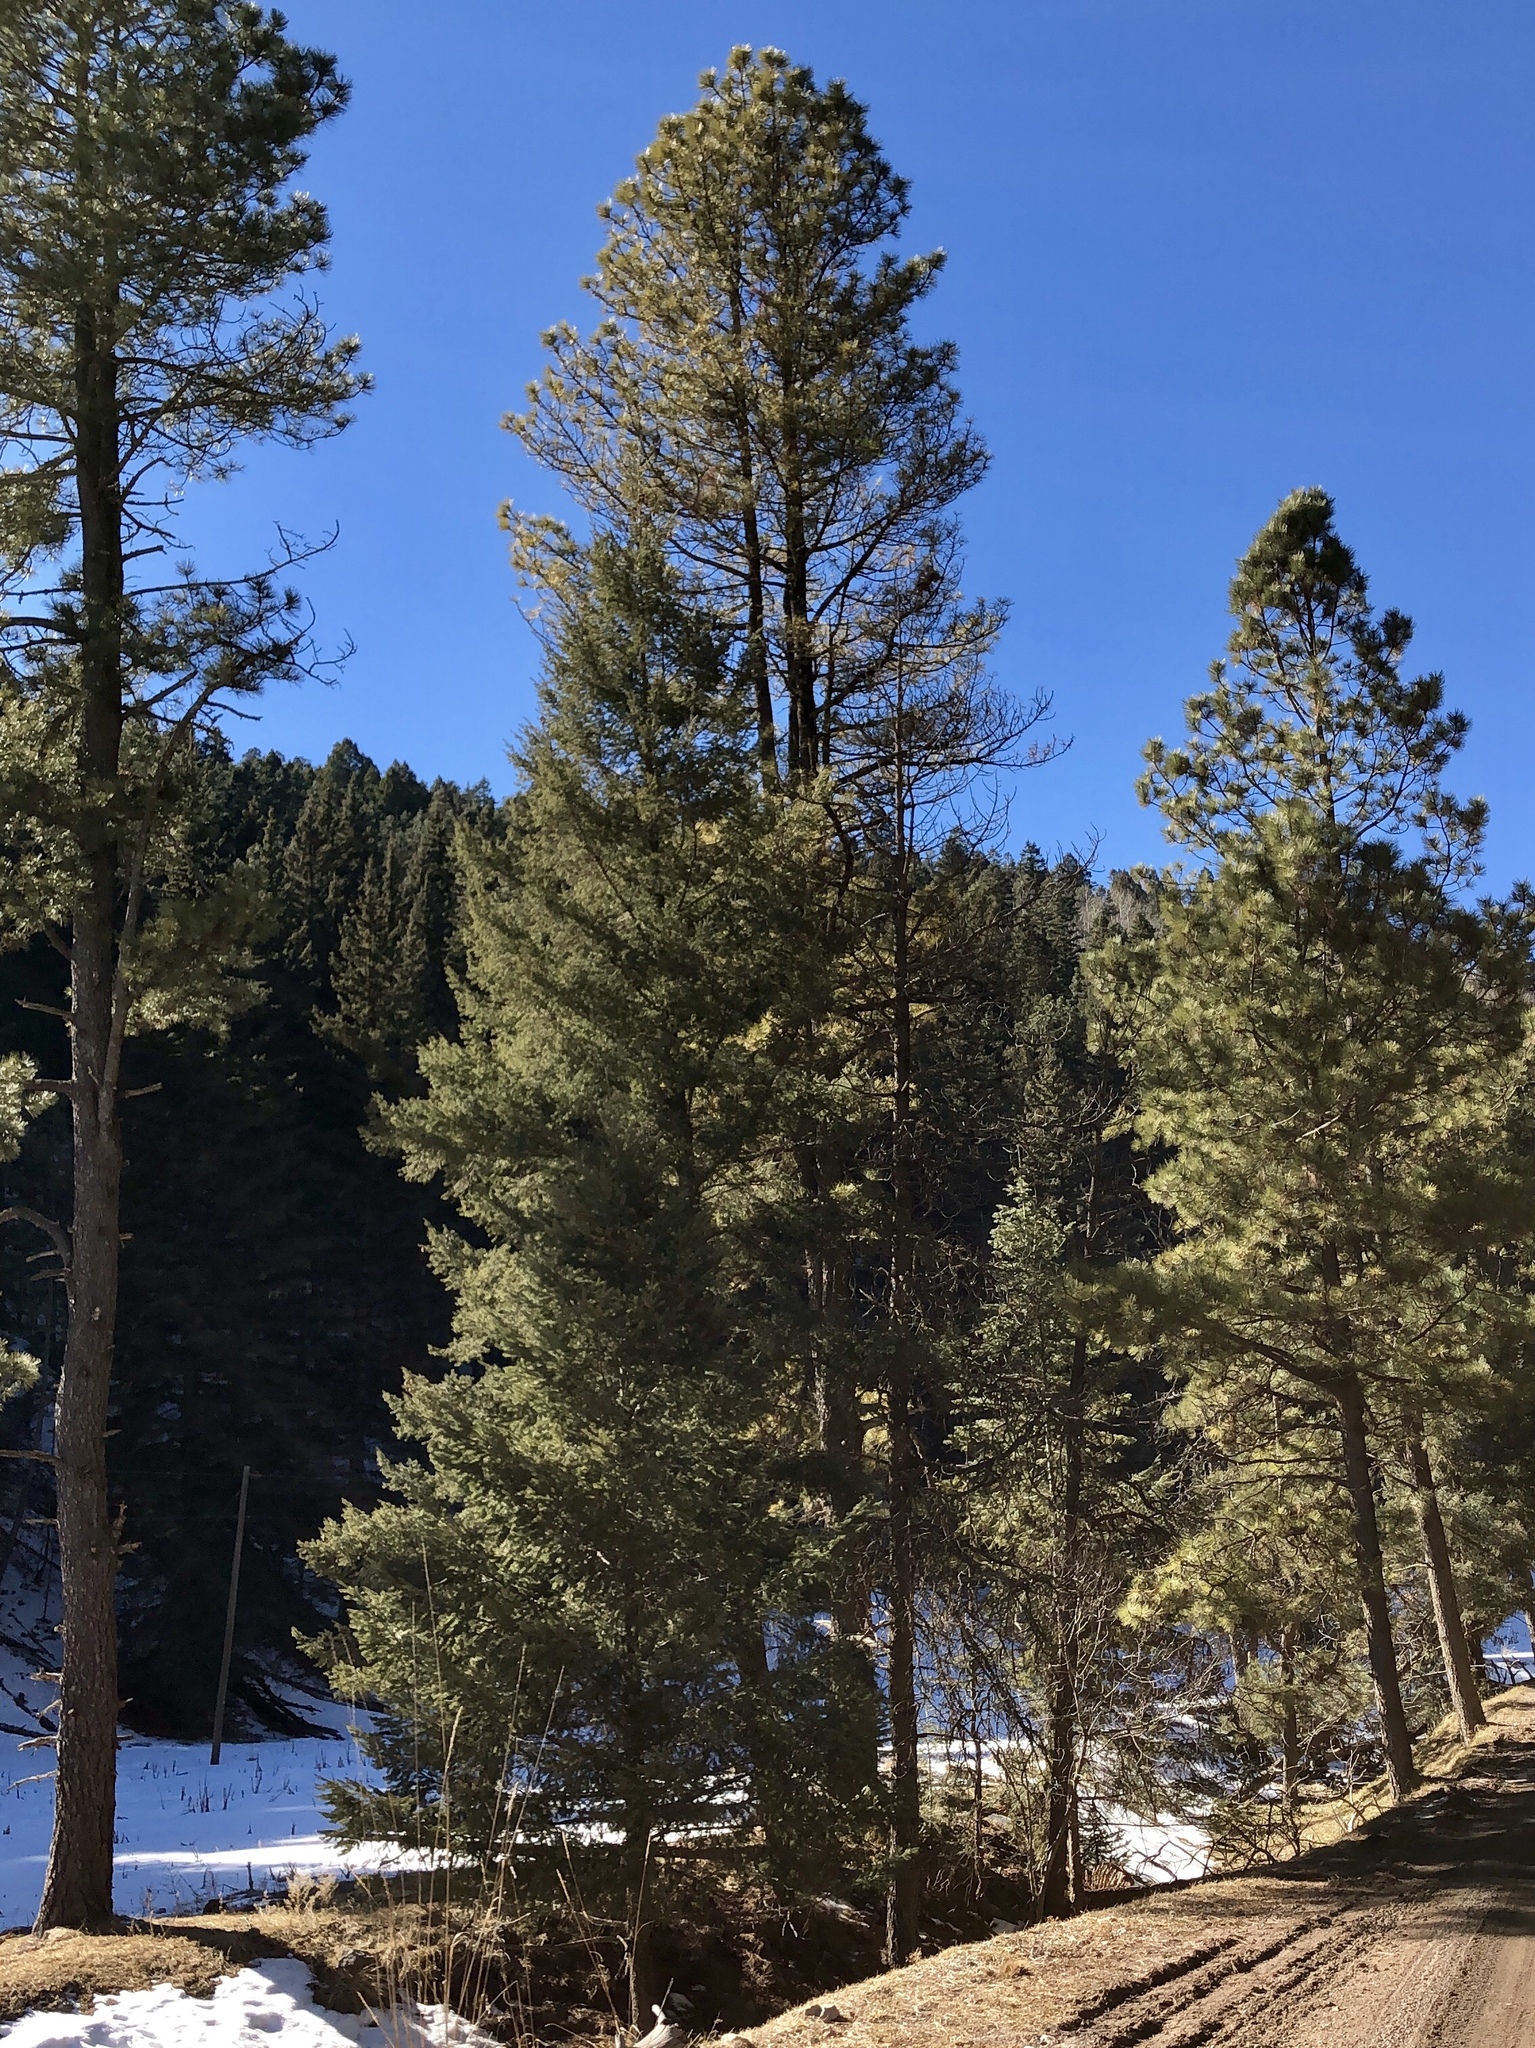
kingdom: Plantae
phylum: Tracheophyta
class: Pinopsida
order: Pinales
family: Pinaceae
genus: Pinus
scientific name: Pinus ponderosa
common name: Western yellow-pine
